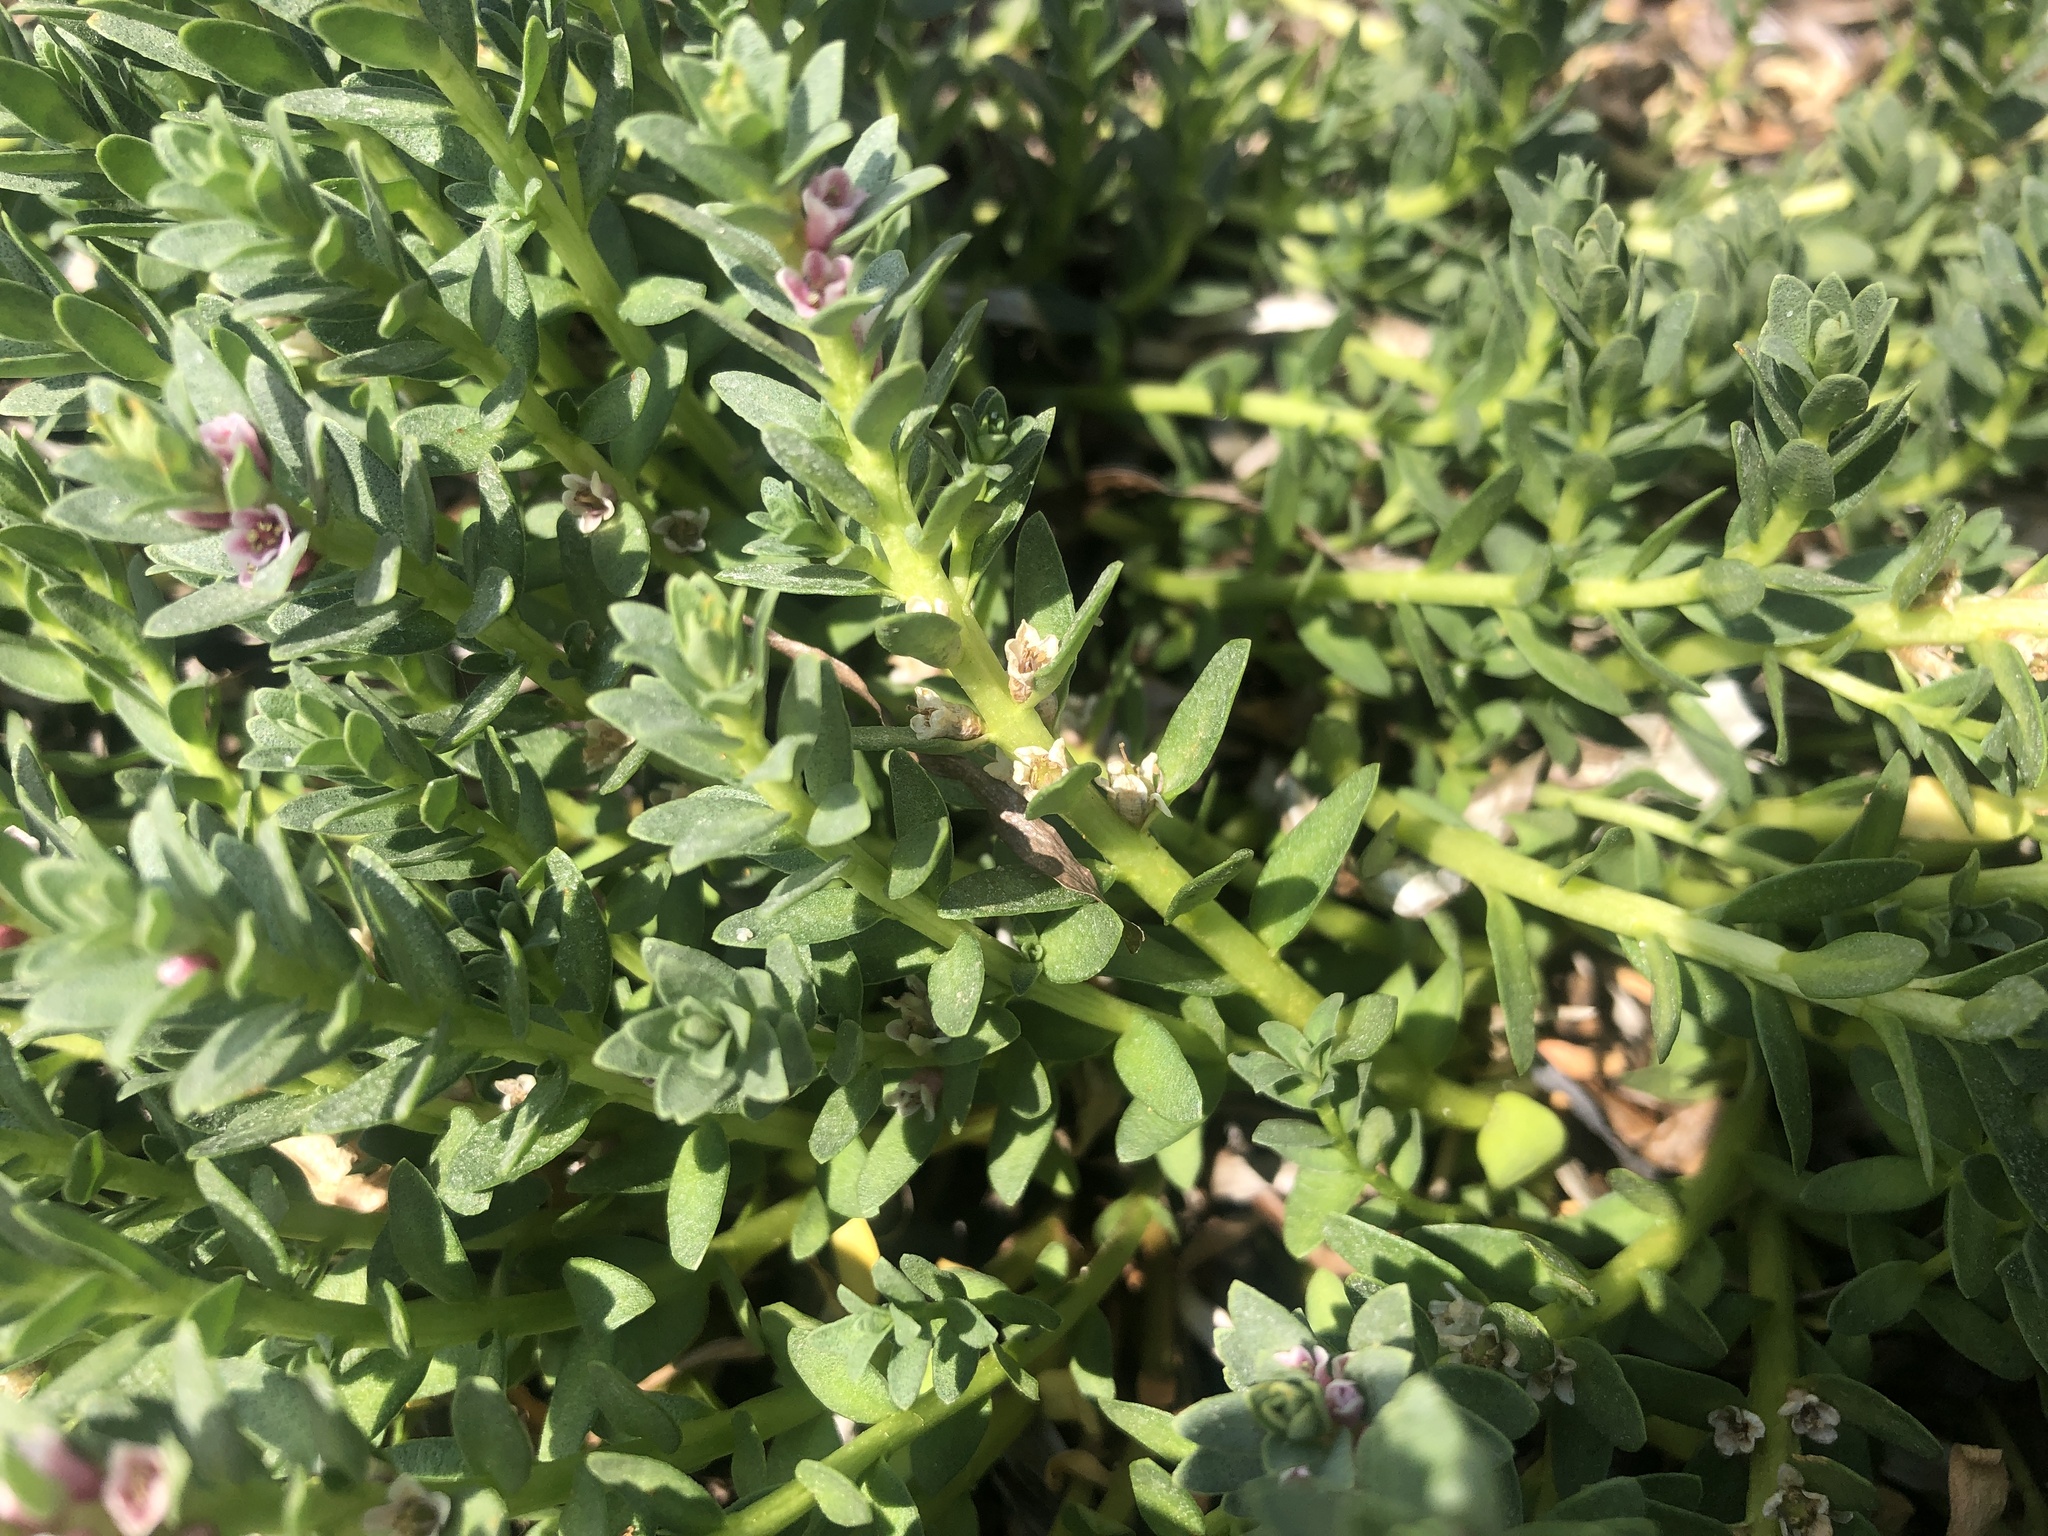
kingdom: Plantae
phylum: Tracheophyta
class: Magnoliopsida
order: Ericales
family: Primulaceae
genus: Lysimachia
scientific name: Lysimachia maritima
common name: Sea milkwort
